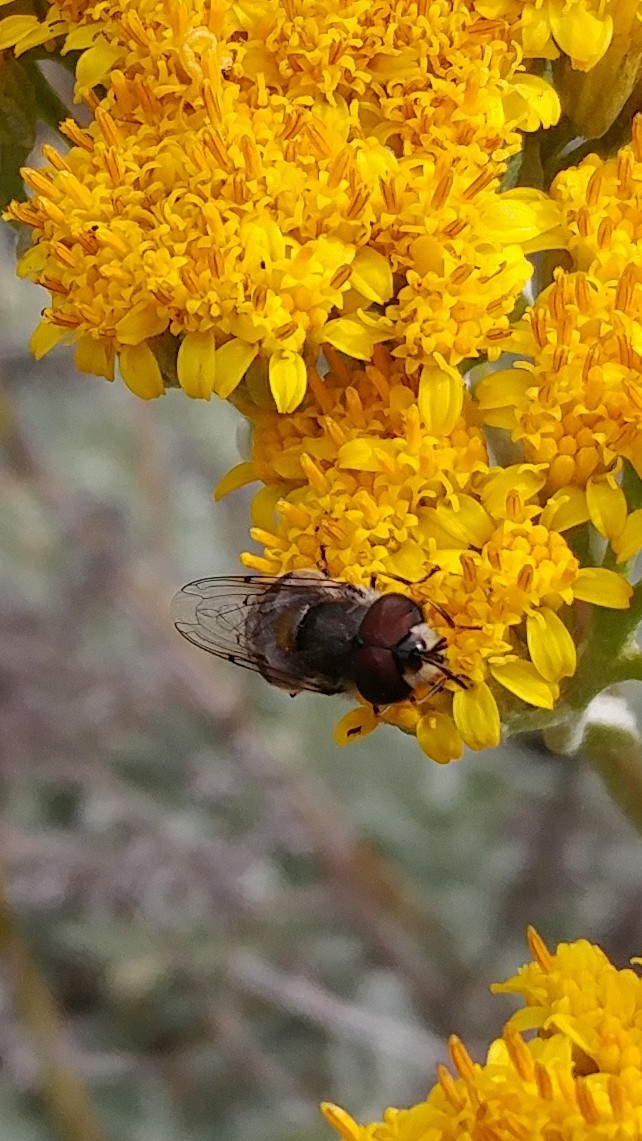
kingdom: Animalia
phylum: Arthropoda
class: Insecta
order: Diptera
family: Syrphidae
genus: Copestylum
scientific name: Copestylum lentum
